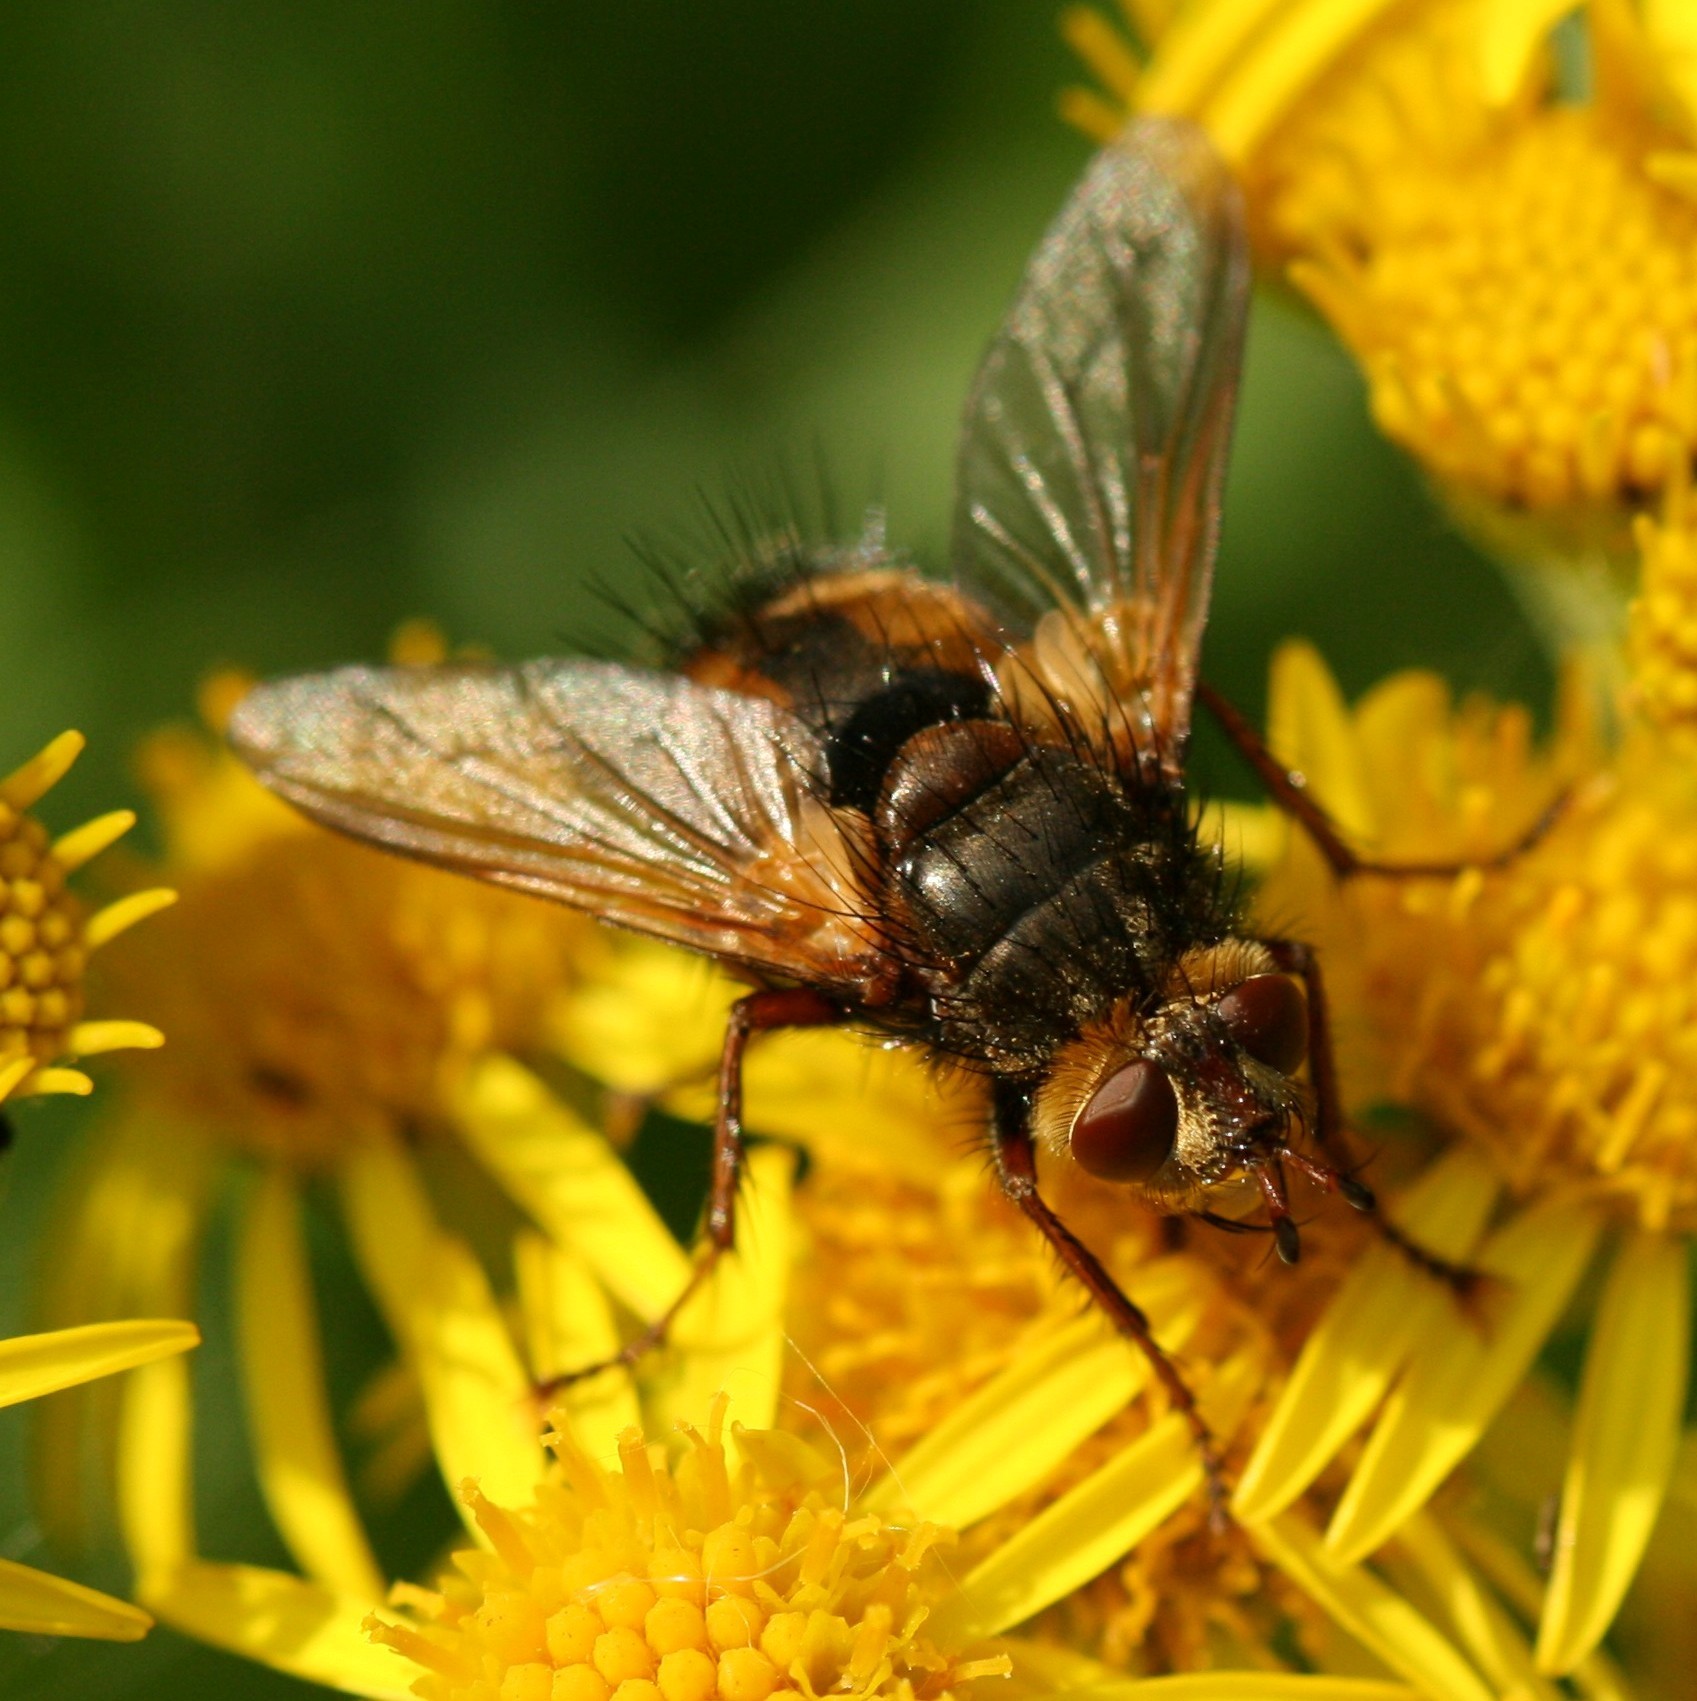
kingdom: Animalia
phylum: Arthropoda
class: Insecta
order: Diptera
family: Tachinidae
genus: Tachina
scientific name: Tachina fera
